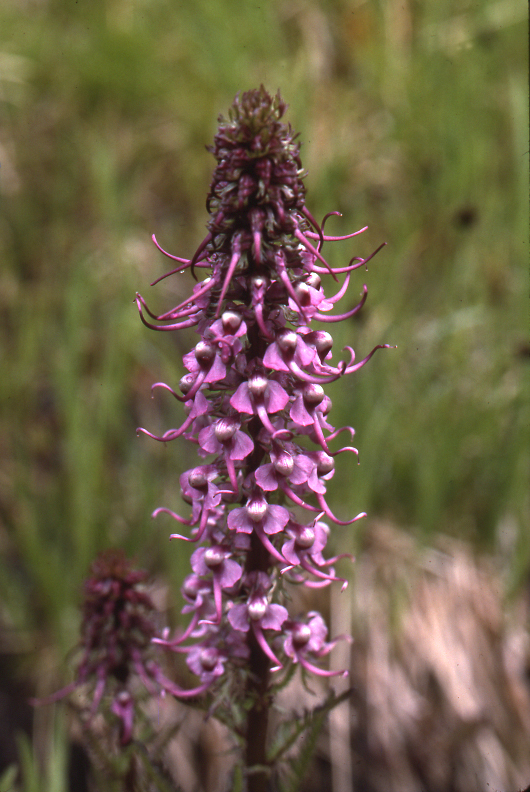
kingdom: Plantae
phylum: Tracheophyta
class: Magnoliopsida
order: Lamiales
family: Orobanchaceae
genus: Pedicularis
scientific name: Pedicularis groenlandica
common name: Elephant's-head
